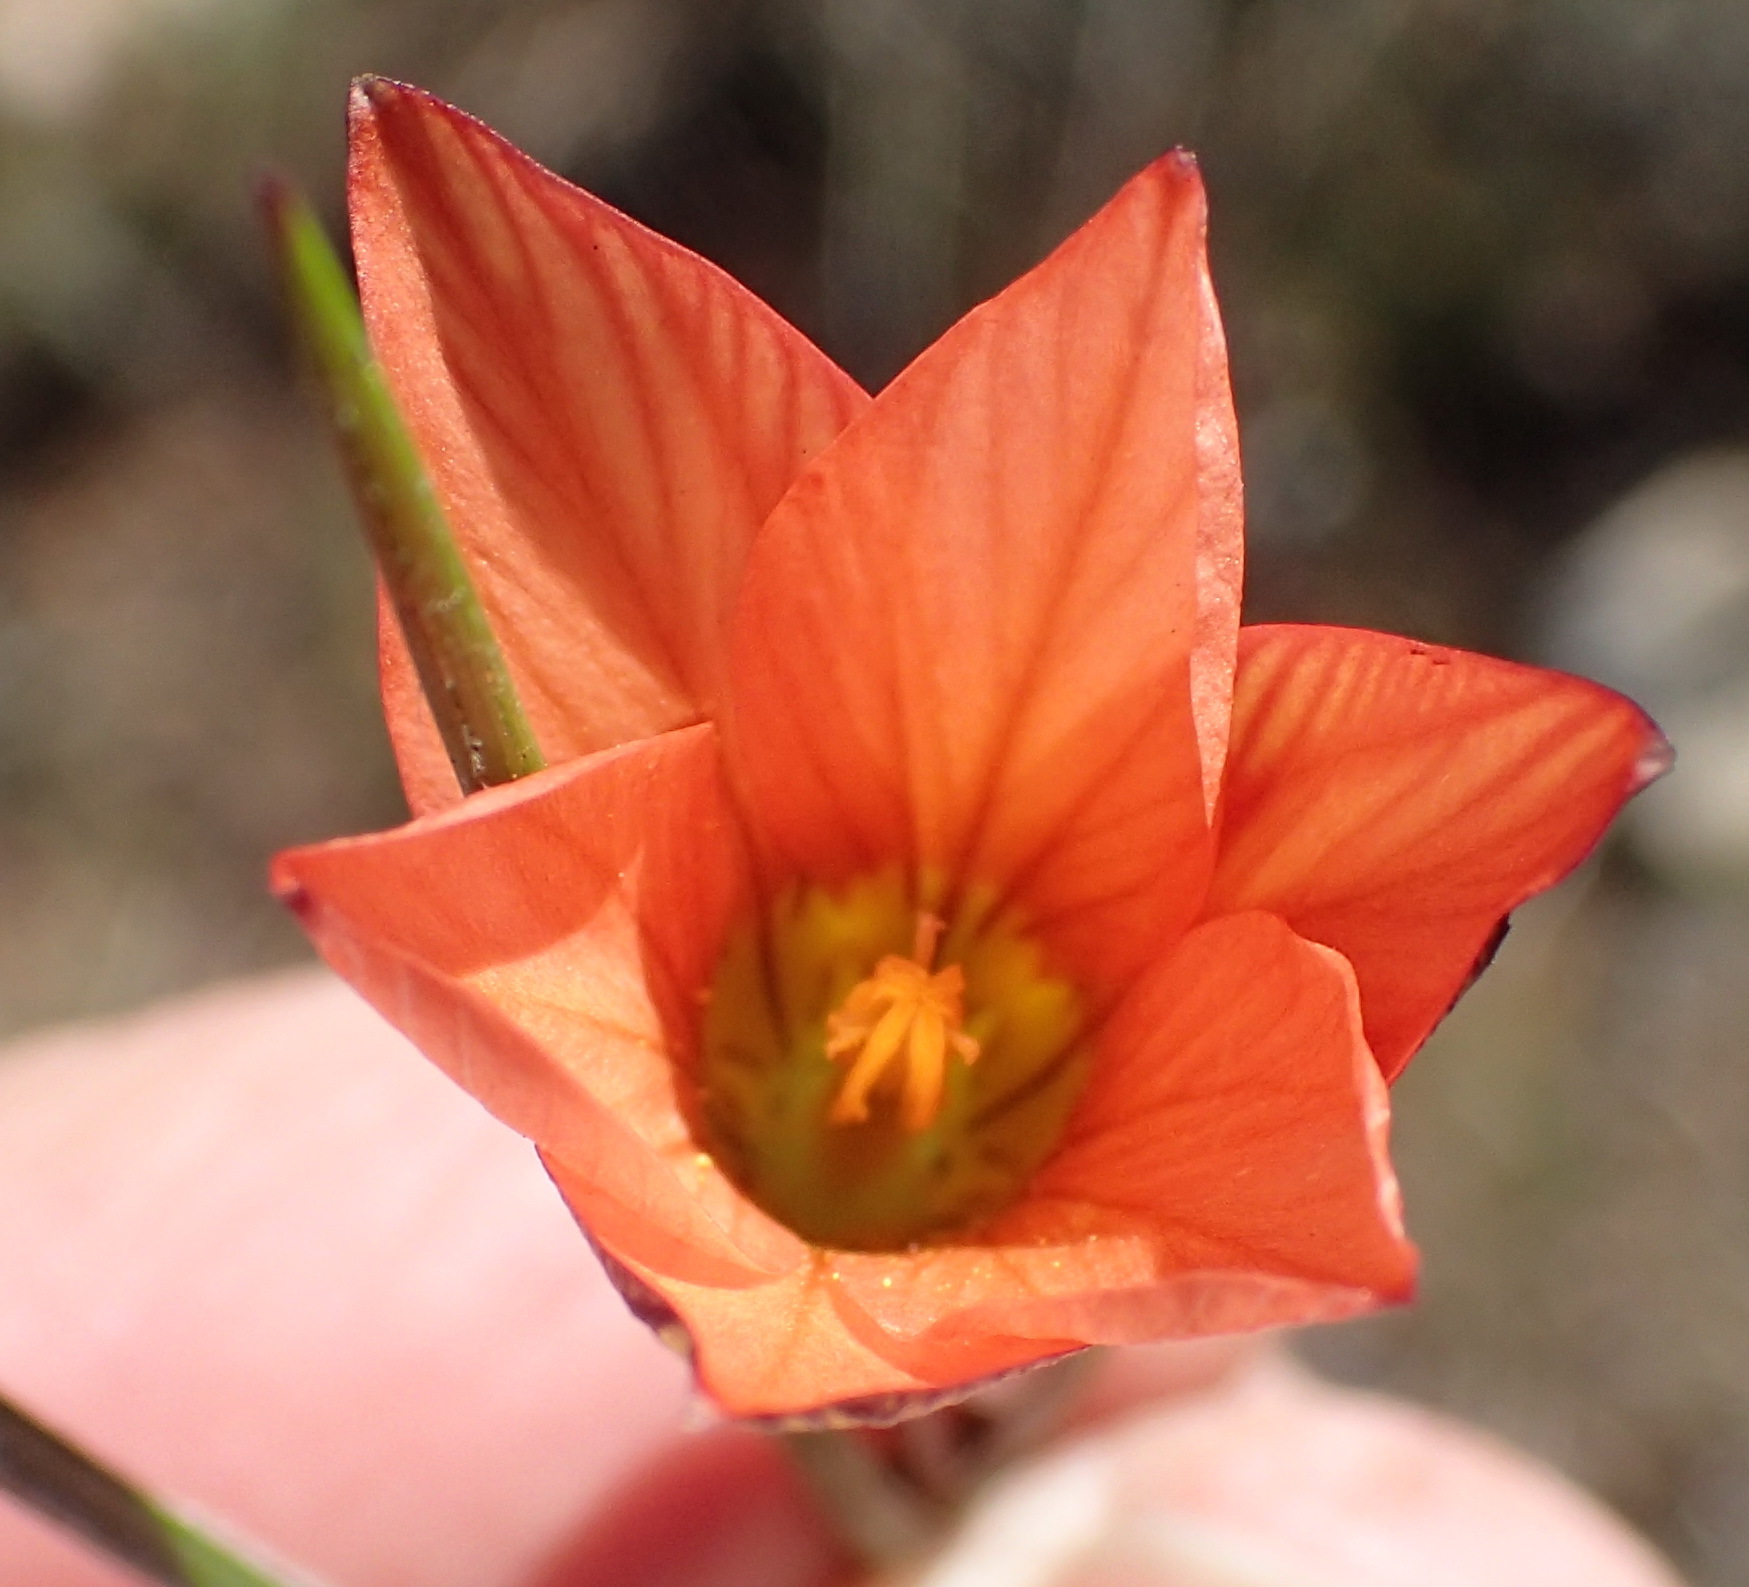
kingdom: Plantae
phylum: Tracheophyta
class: Liliopsida
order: Asparagales
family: Iridaceae
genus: Romulea
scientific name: Romulea jugicola
